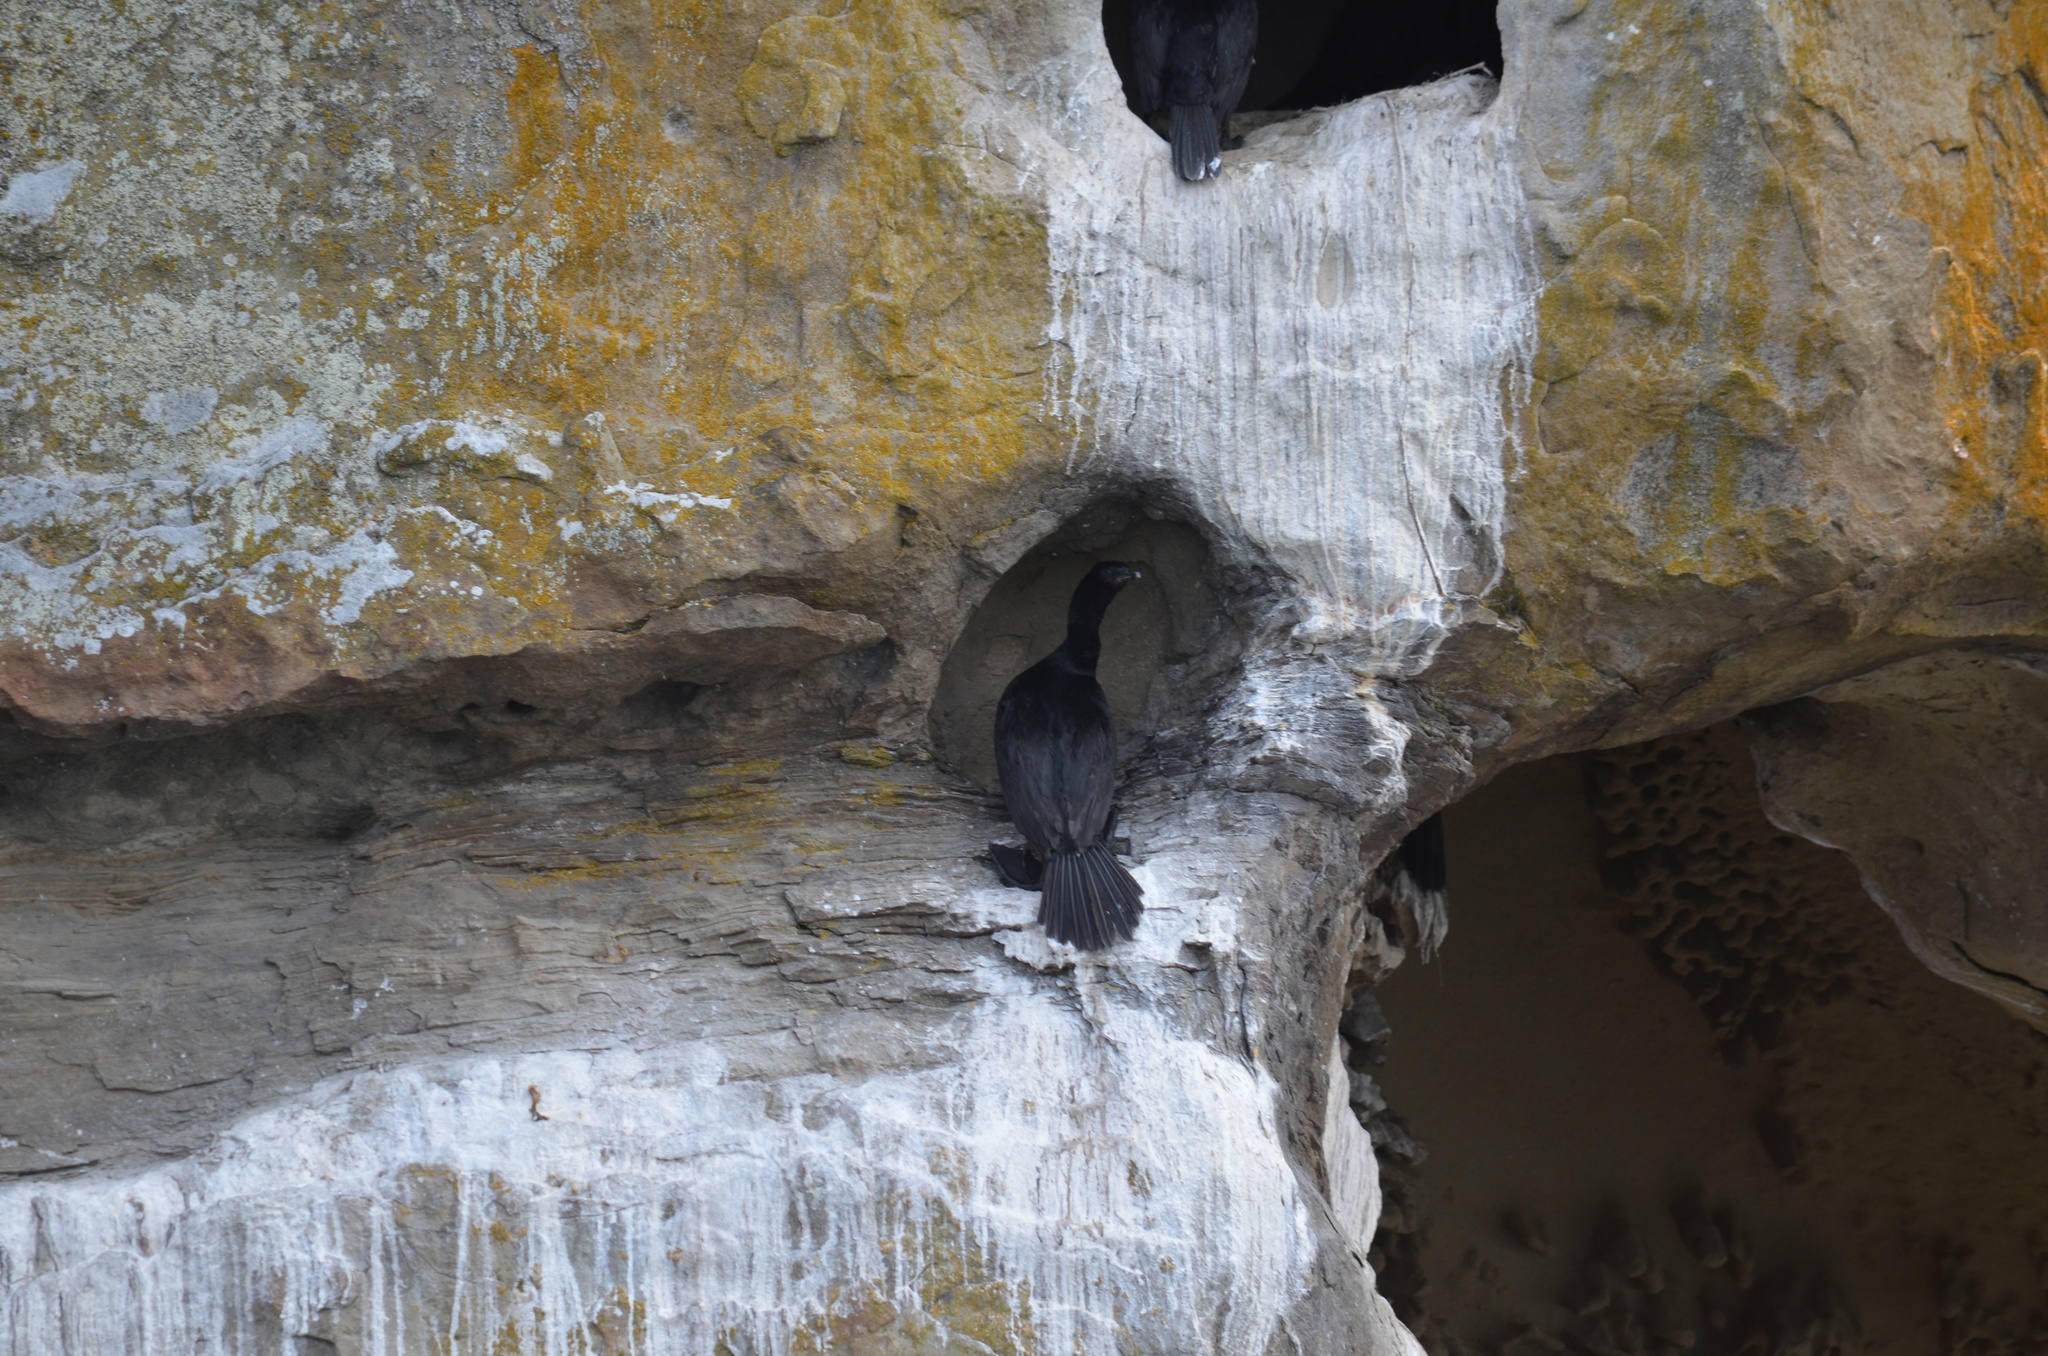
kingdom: Animalia
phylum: Chordata
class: Aves
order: Suliformes
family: Phalacrocoracidae
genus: Phalacrocorax
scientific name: Phalacrocorax pelagicus
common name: Pelagic cormorant
